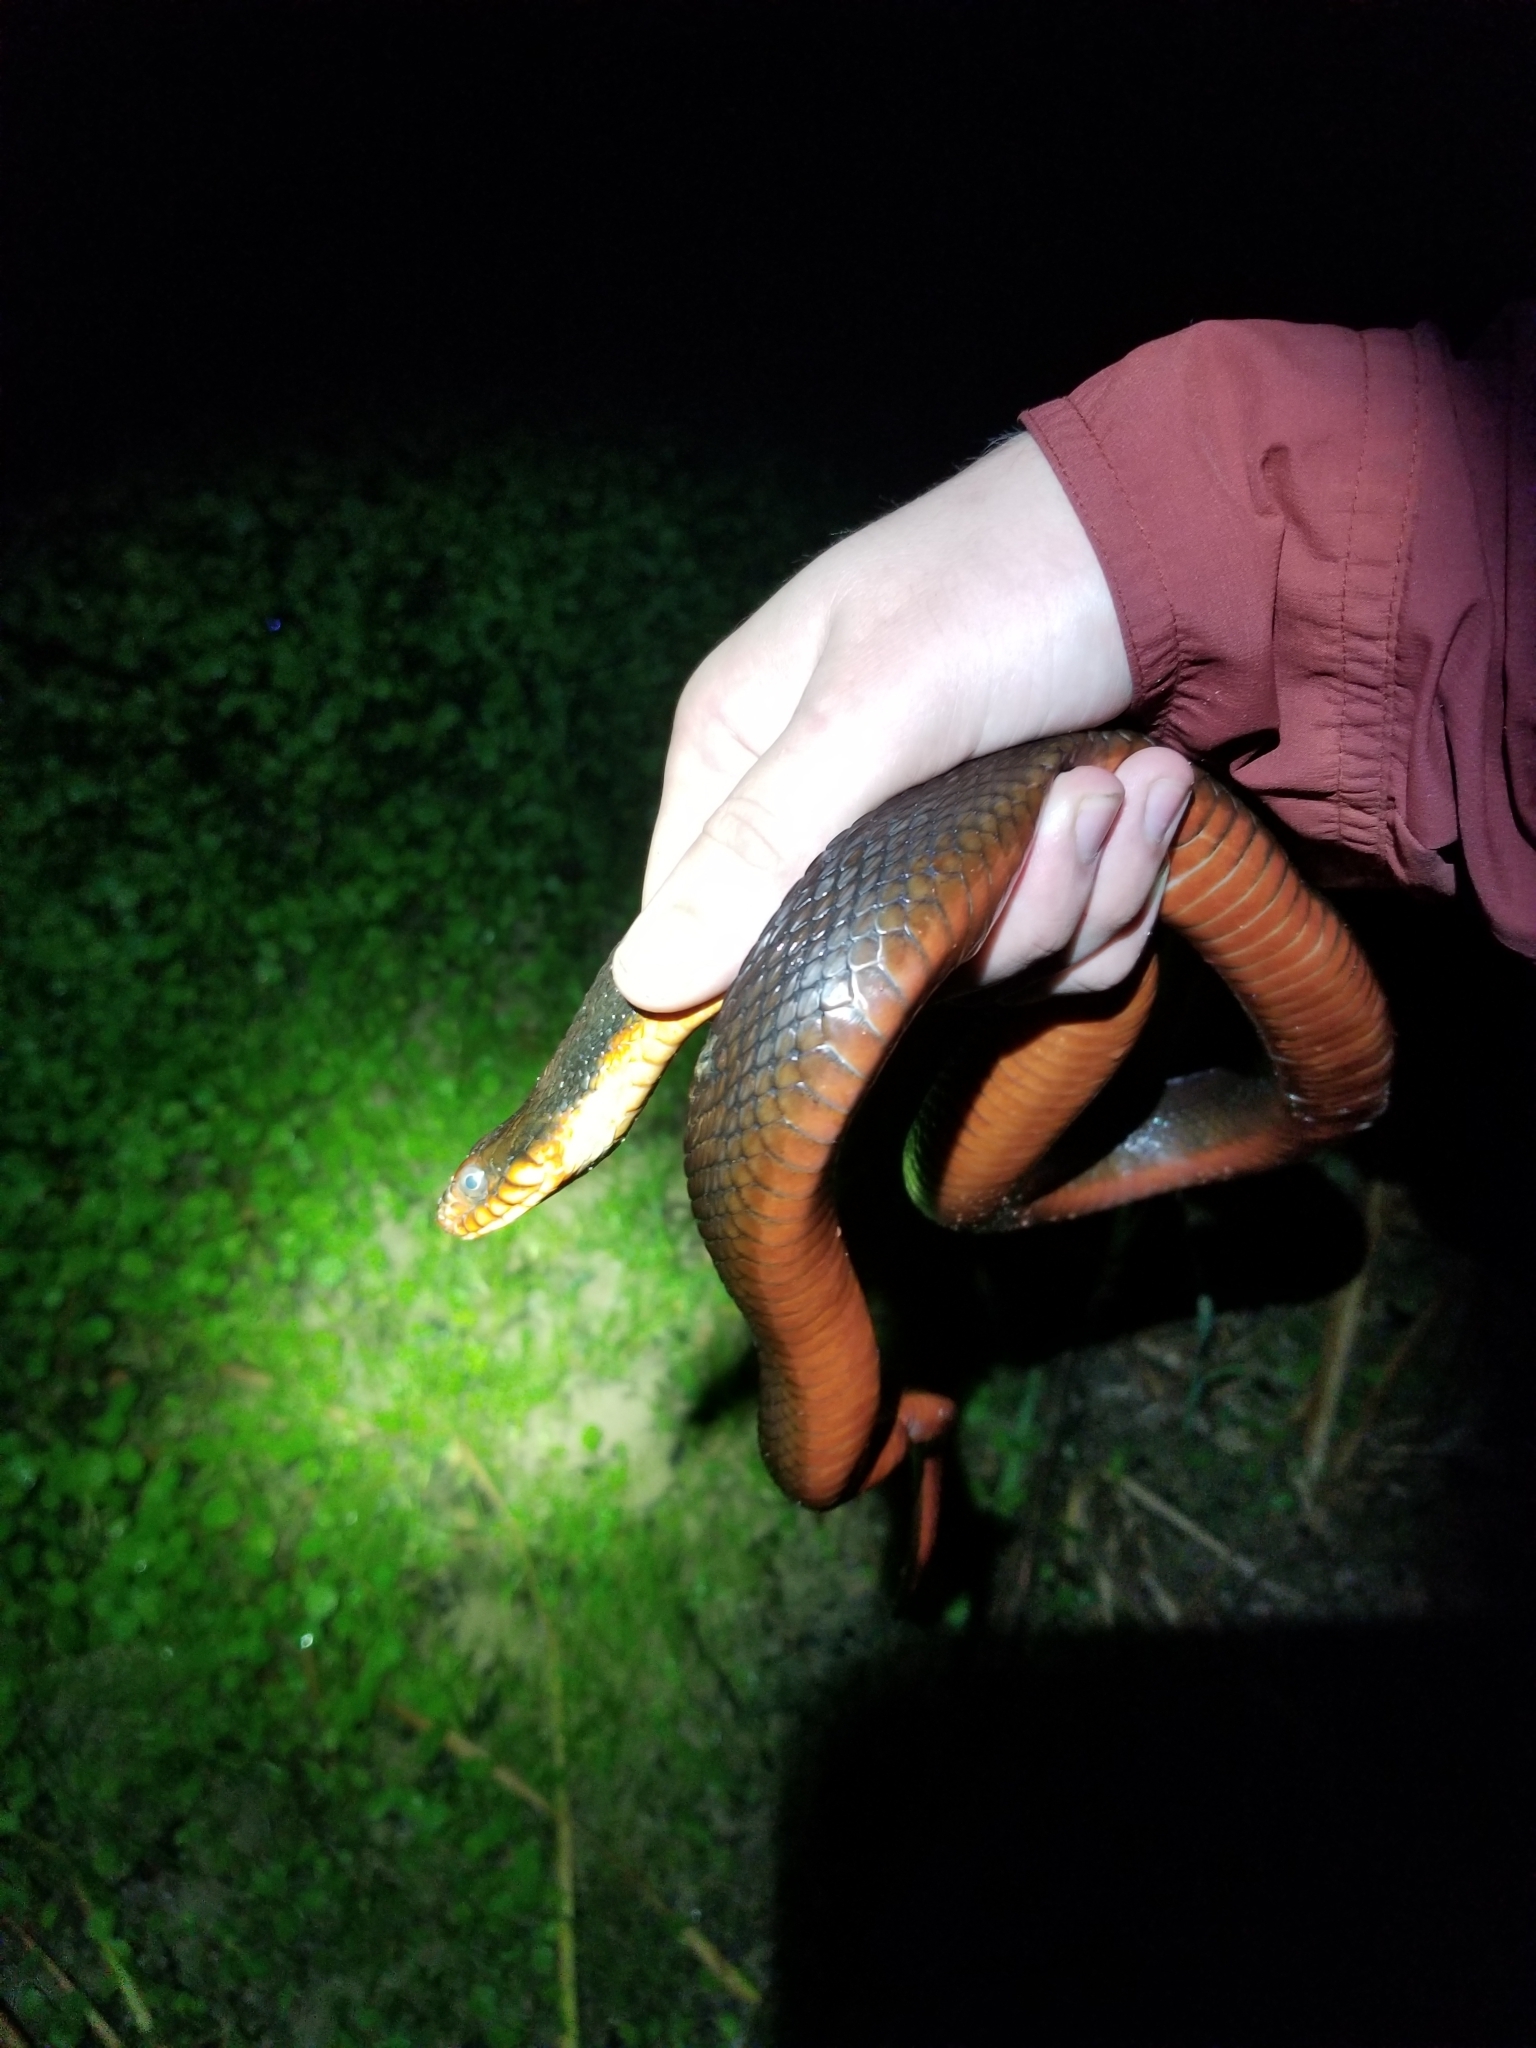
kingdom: Animalia
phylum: Chordata
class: Squamata
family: Colubridae
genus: Nerodia
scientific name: Nerodia erythrogaster
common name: Plainbelly water snake
